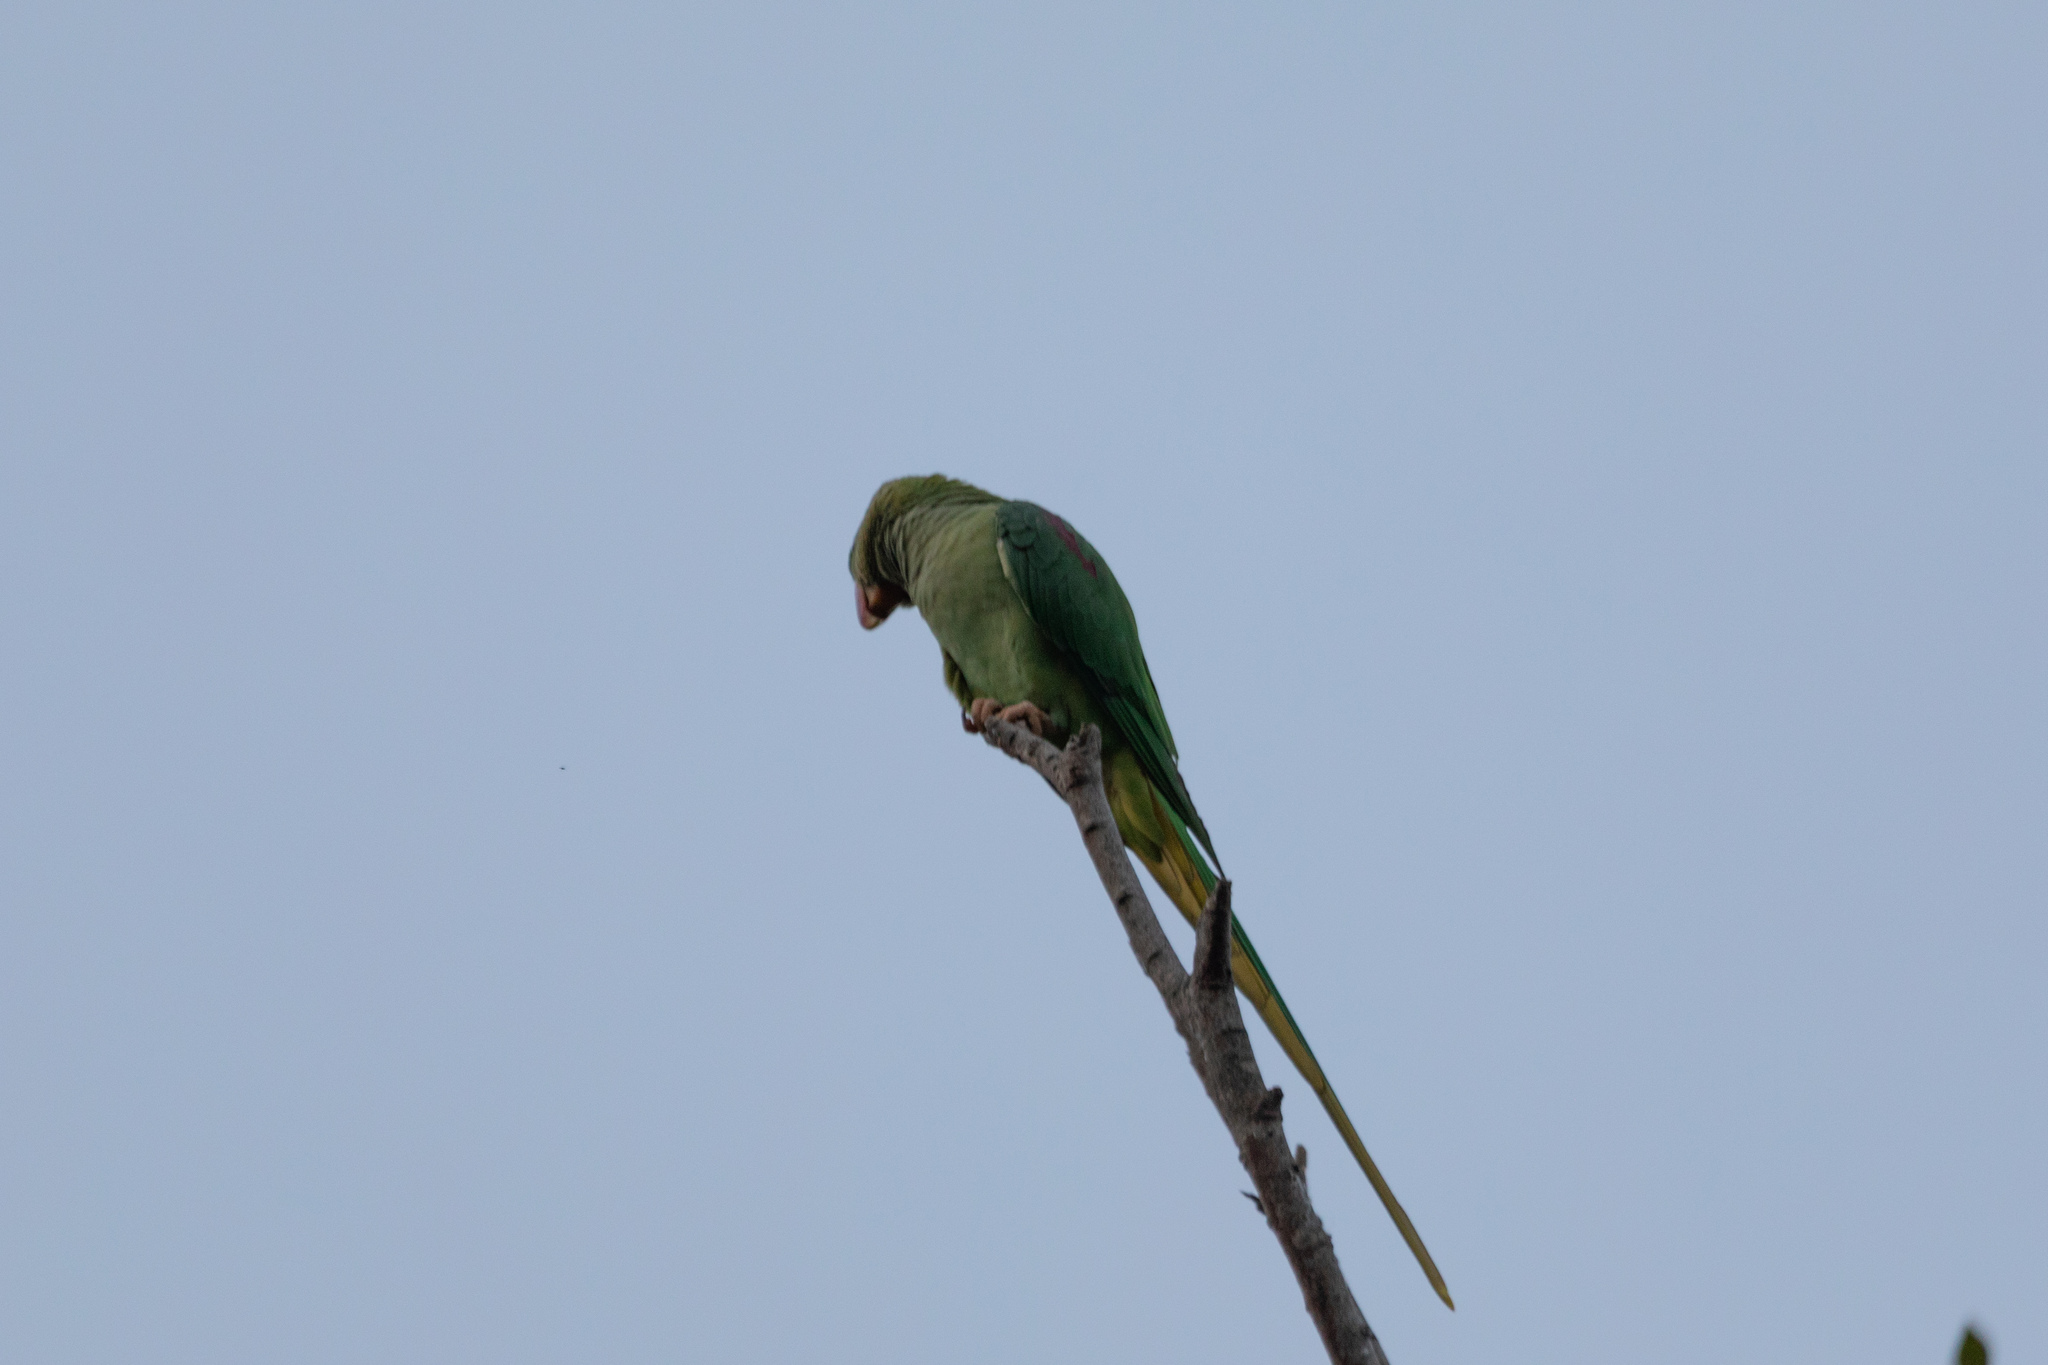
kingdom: Animalia
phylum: Chordata
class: Aves
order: Psittaciformes
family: Psittacidae
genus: Psittacula
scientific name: Psittacula eupatria
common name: Alexandrine parakeet
